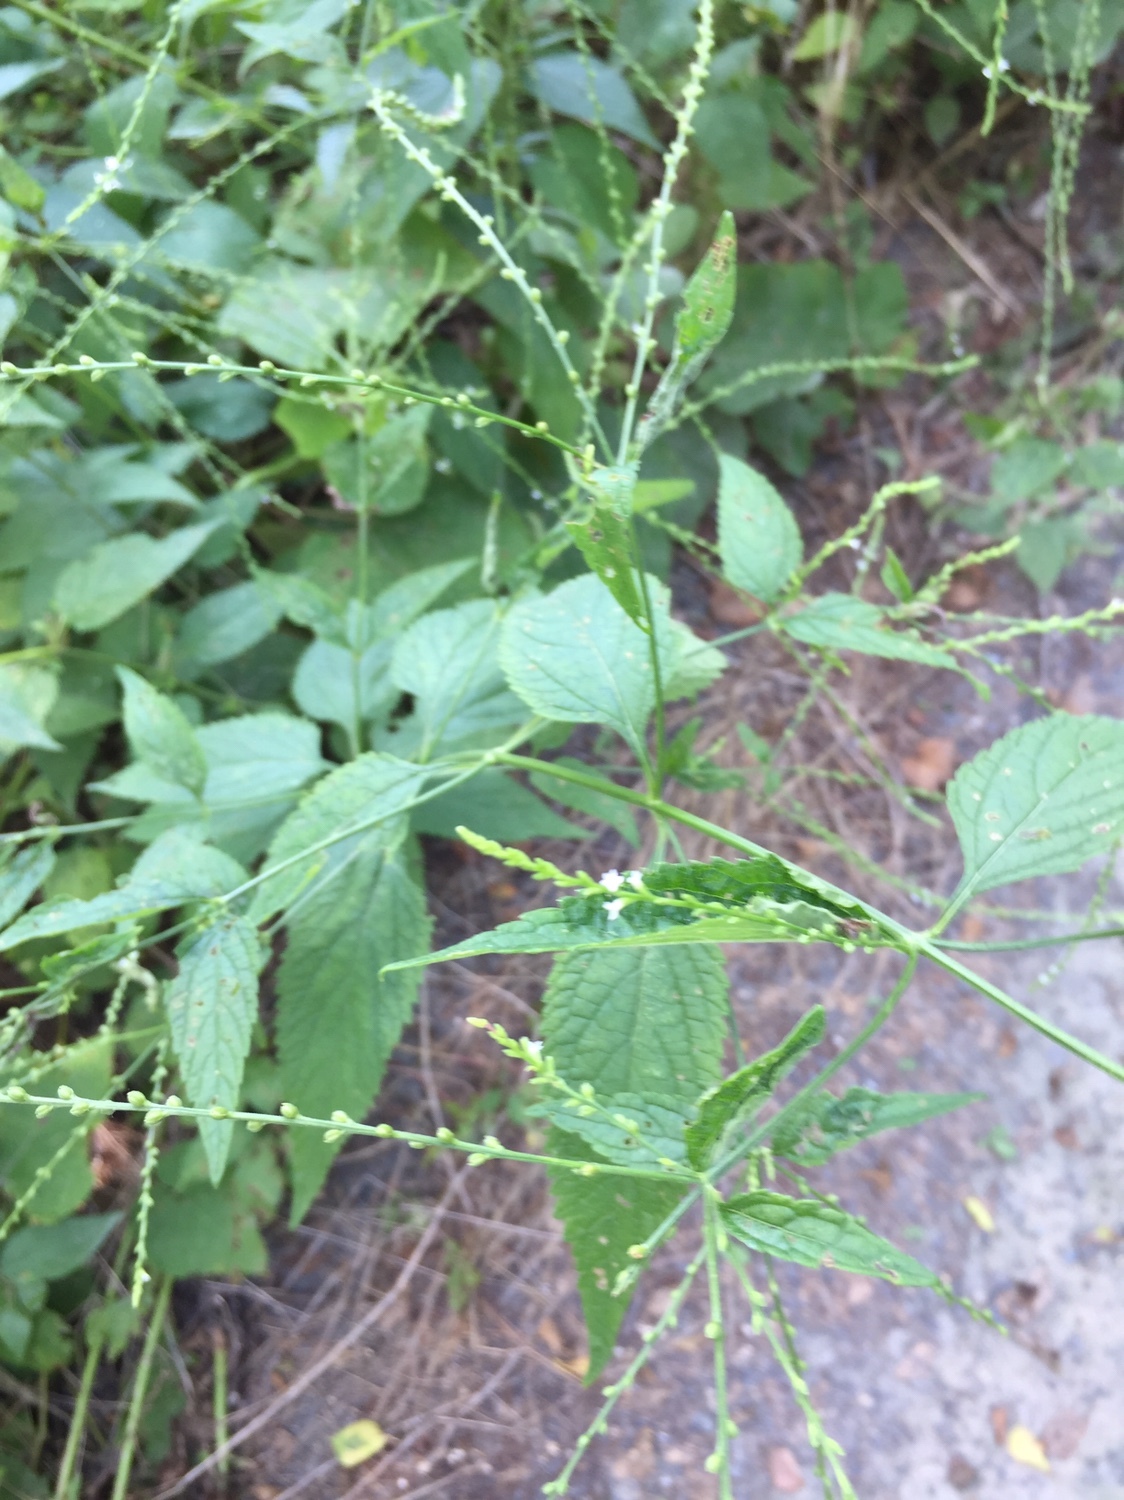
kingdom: Plantae
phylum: Tracheophyta
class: Magnoliopsida
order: Lamiales
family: Verbenaceae
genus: Verbena
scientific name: Verbena urticifolia
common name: Nettle-leaved vervain
